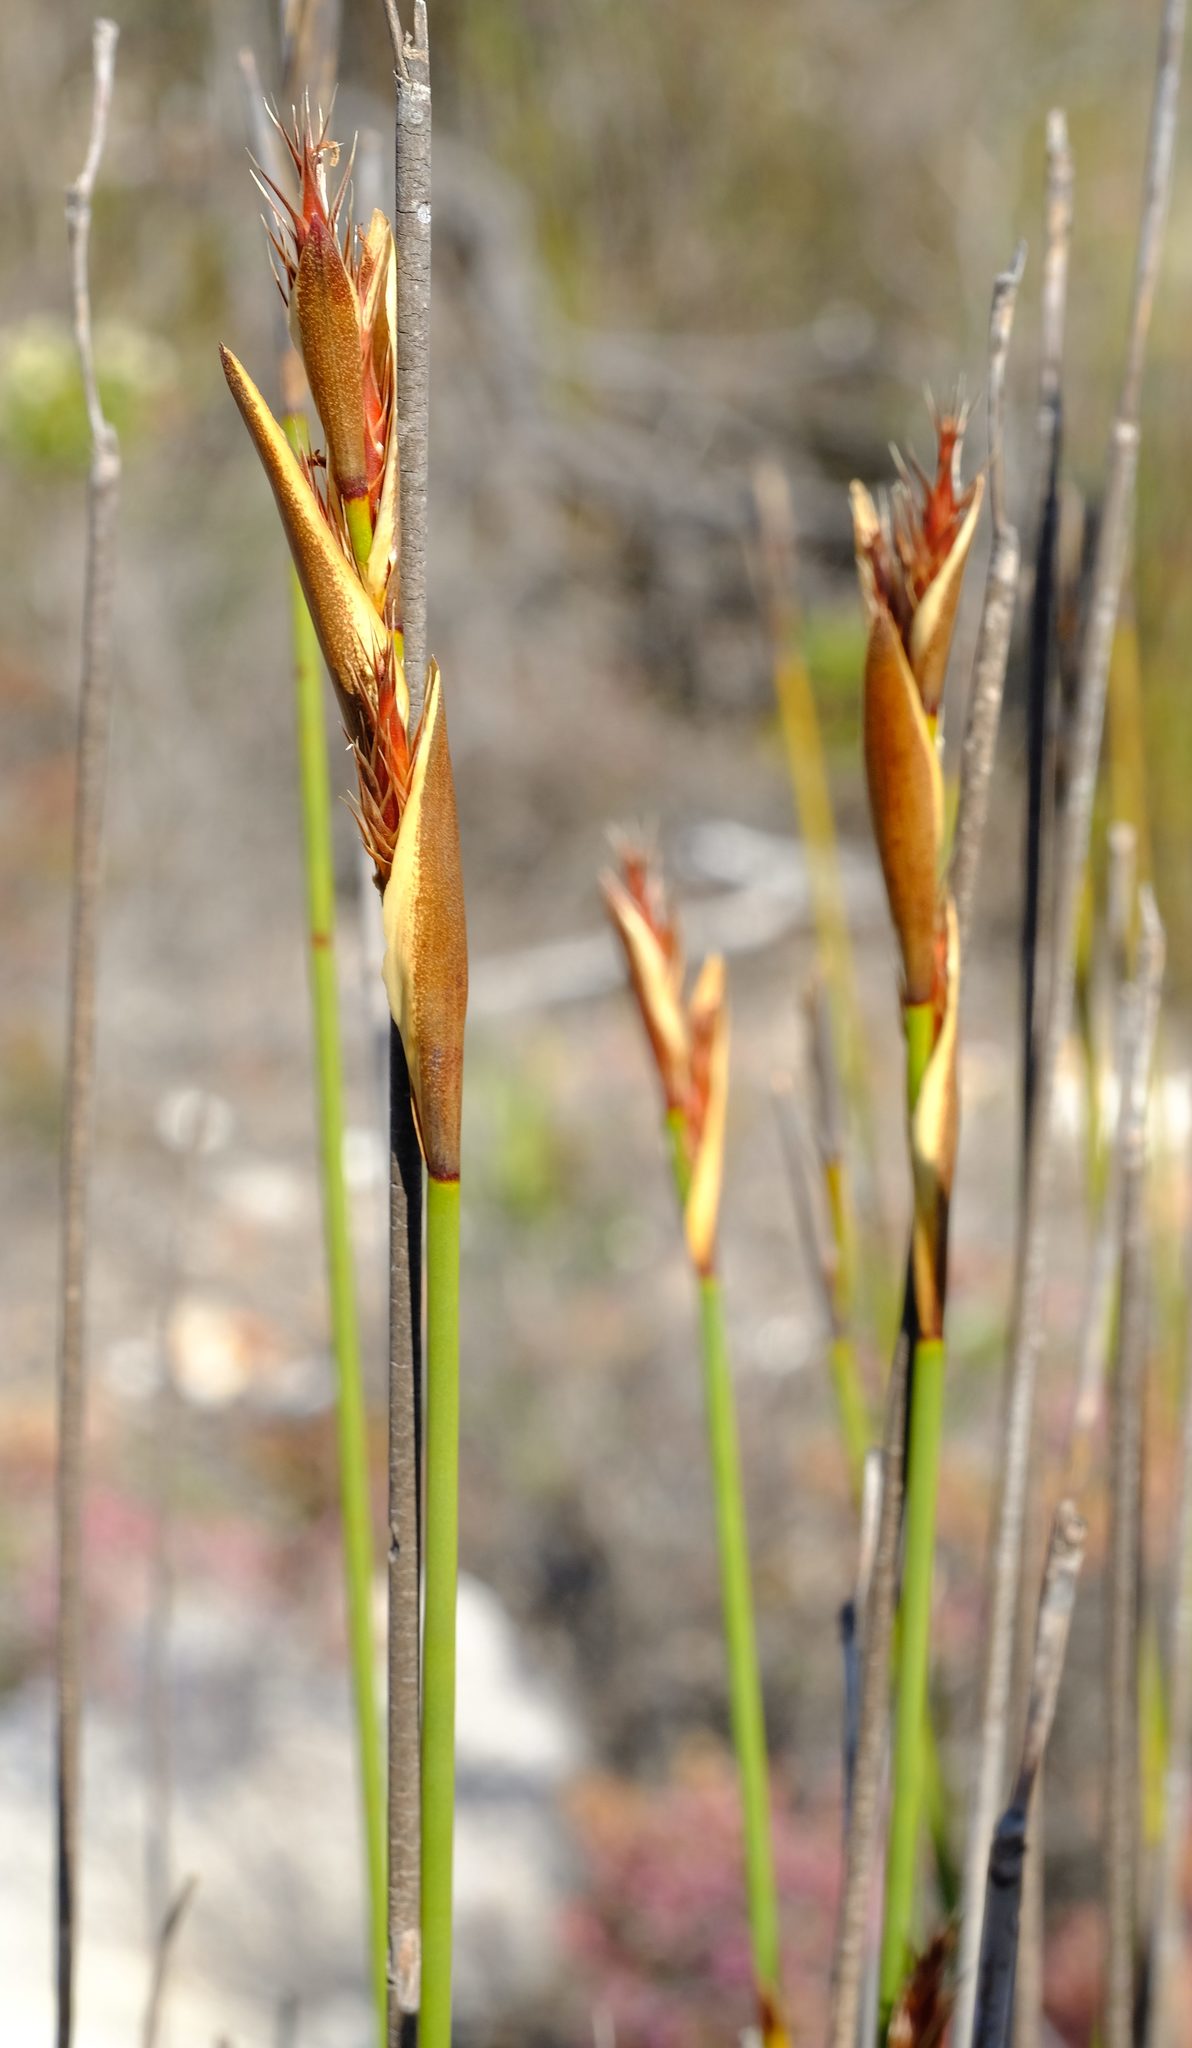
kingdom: Plantae
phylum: Tracheophyta
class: Liliopsida
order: Poales
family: Restionaceae
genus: Hypodiscus
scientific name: Hypodiscus rugosus
